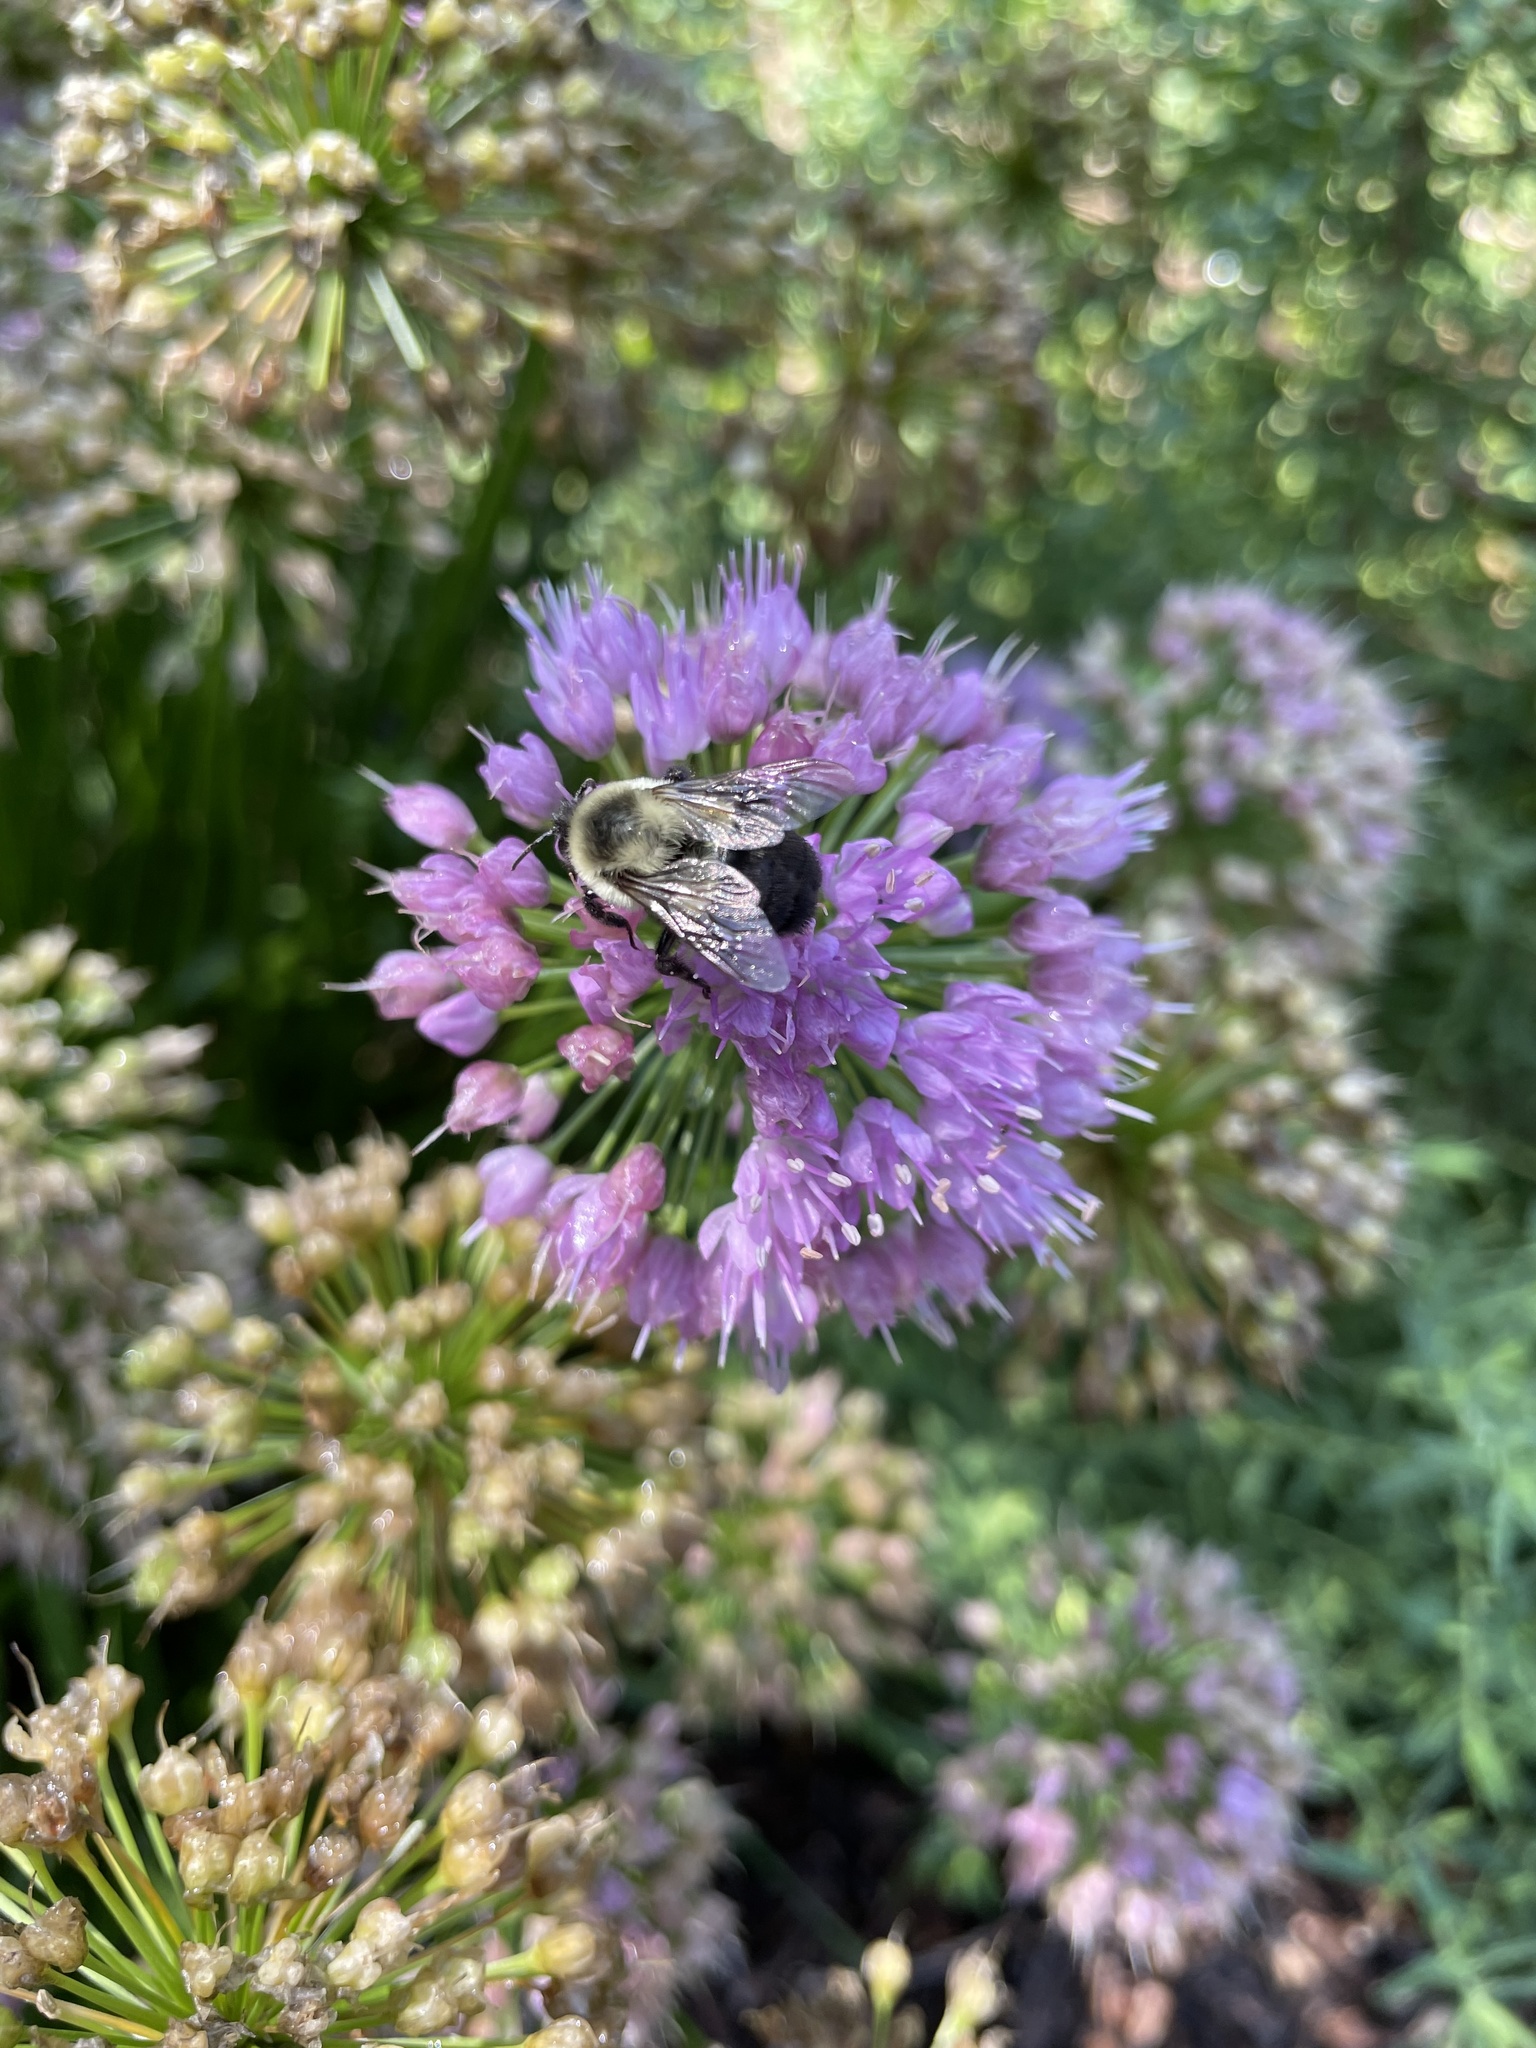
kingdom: Animalia
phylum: Arthropoda
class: Insecta
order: Hymenoptera
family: Apidae
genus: Bombus
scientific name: Bombus impatiens
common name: Common eastern bumble bee
